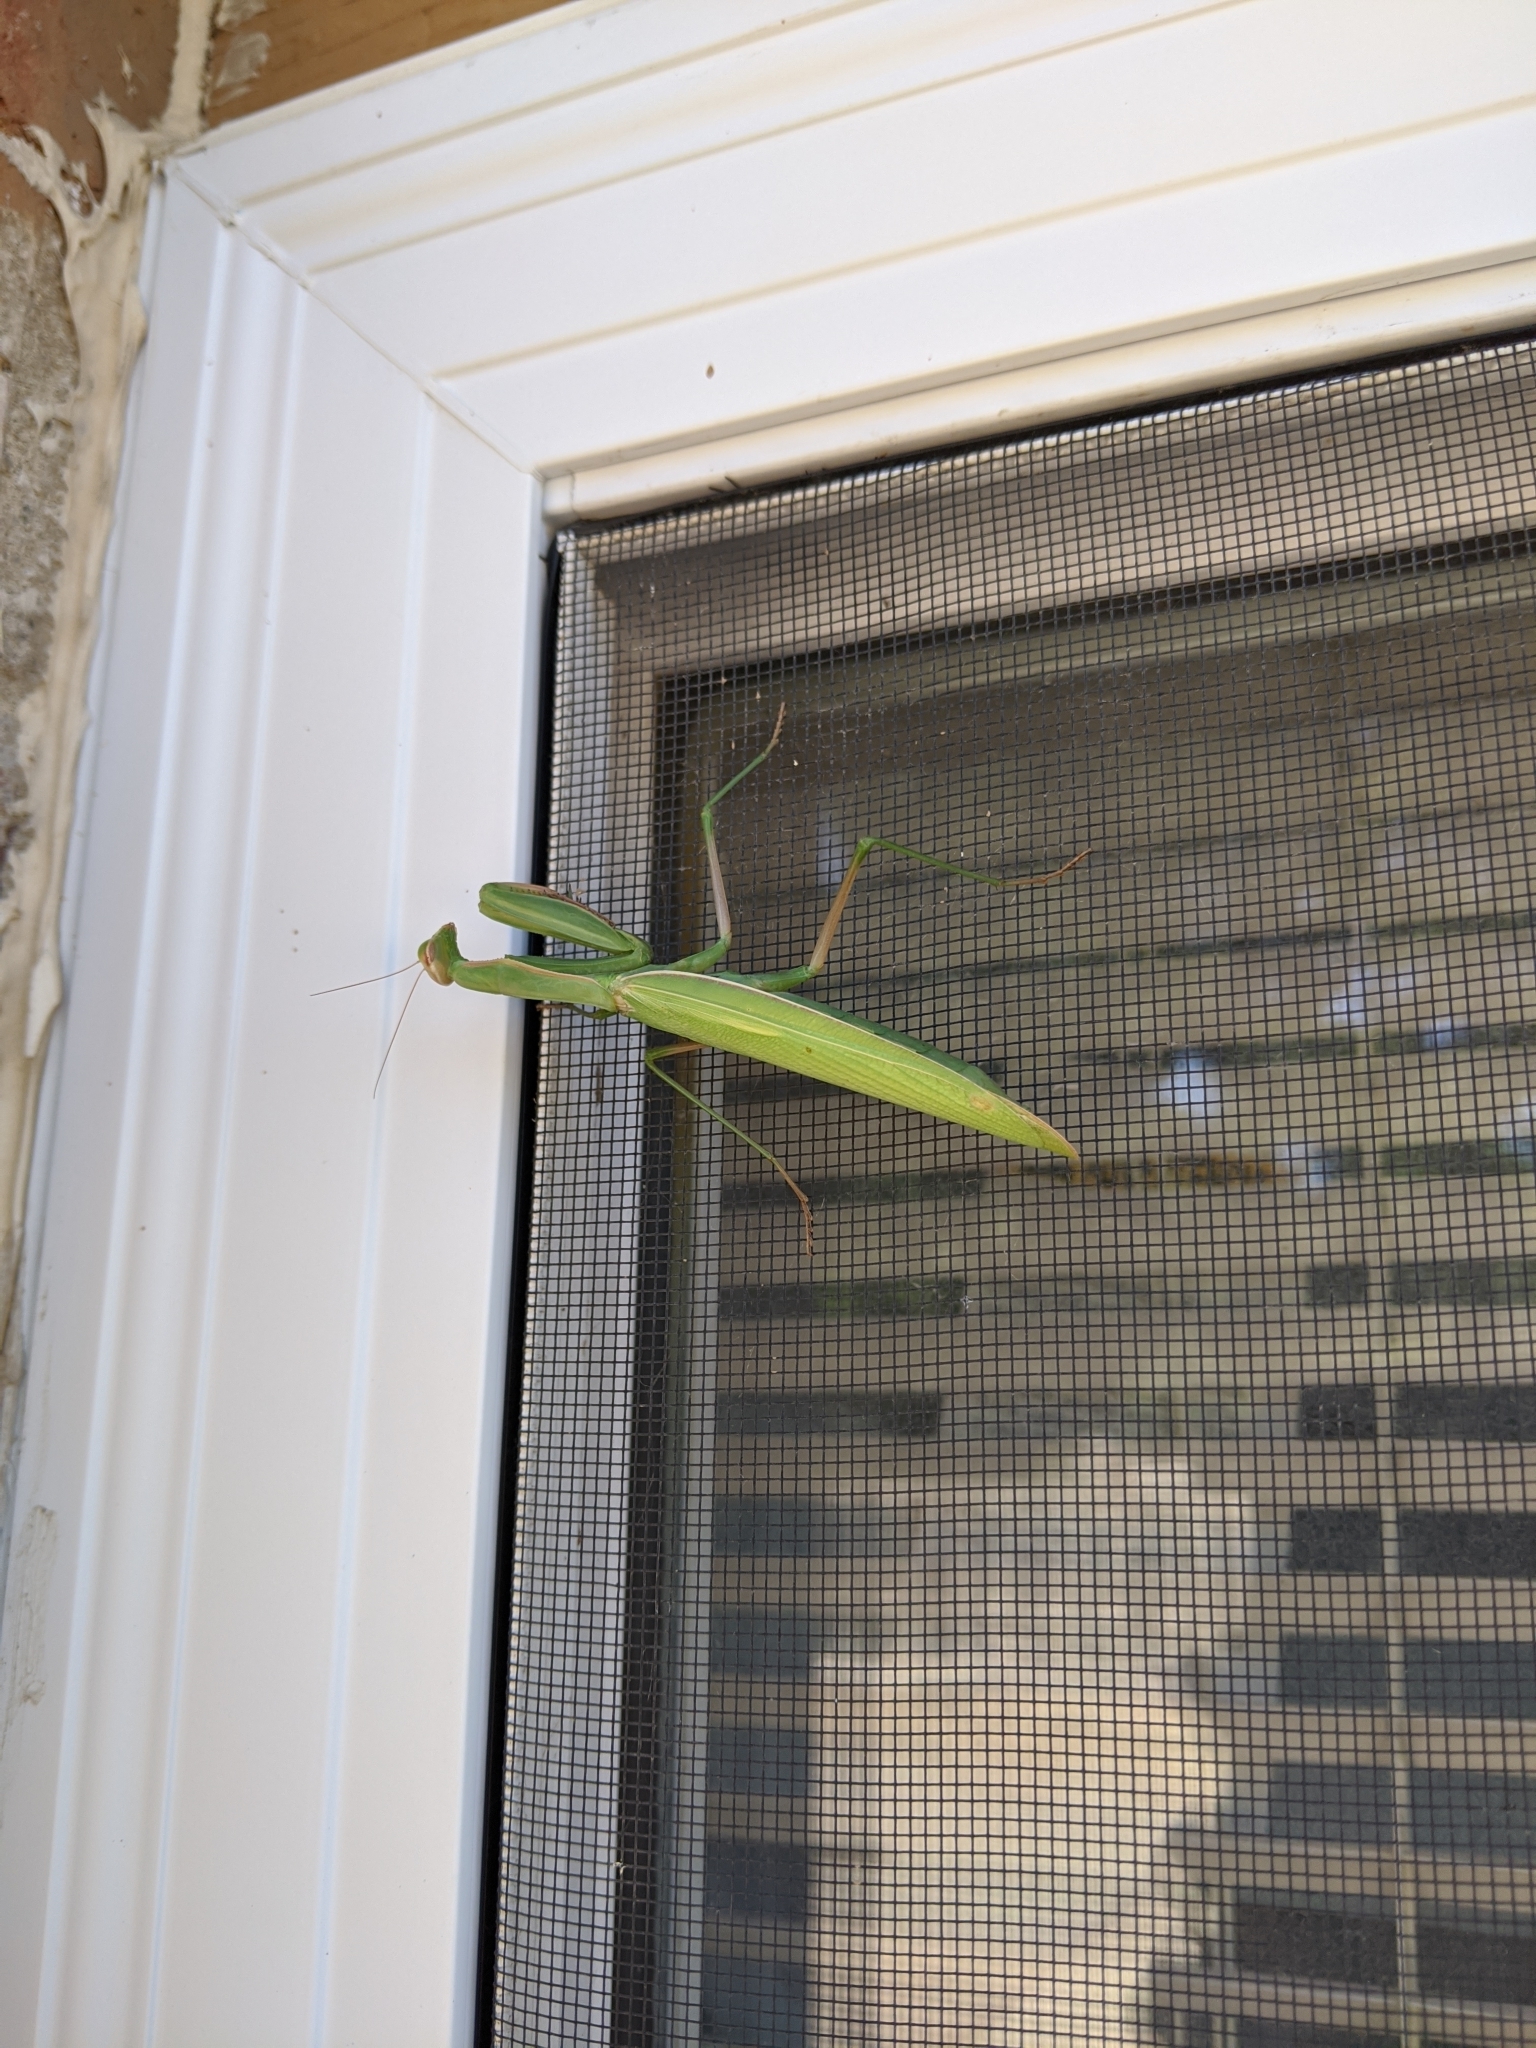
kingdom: Animalia
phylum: Arthropoda
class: Insecta
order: Mantodea
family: Mantidae
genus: Mantis
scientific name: Mantis religiosa
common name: Praying mantis
